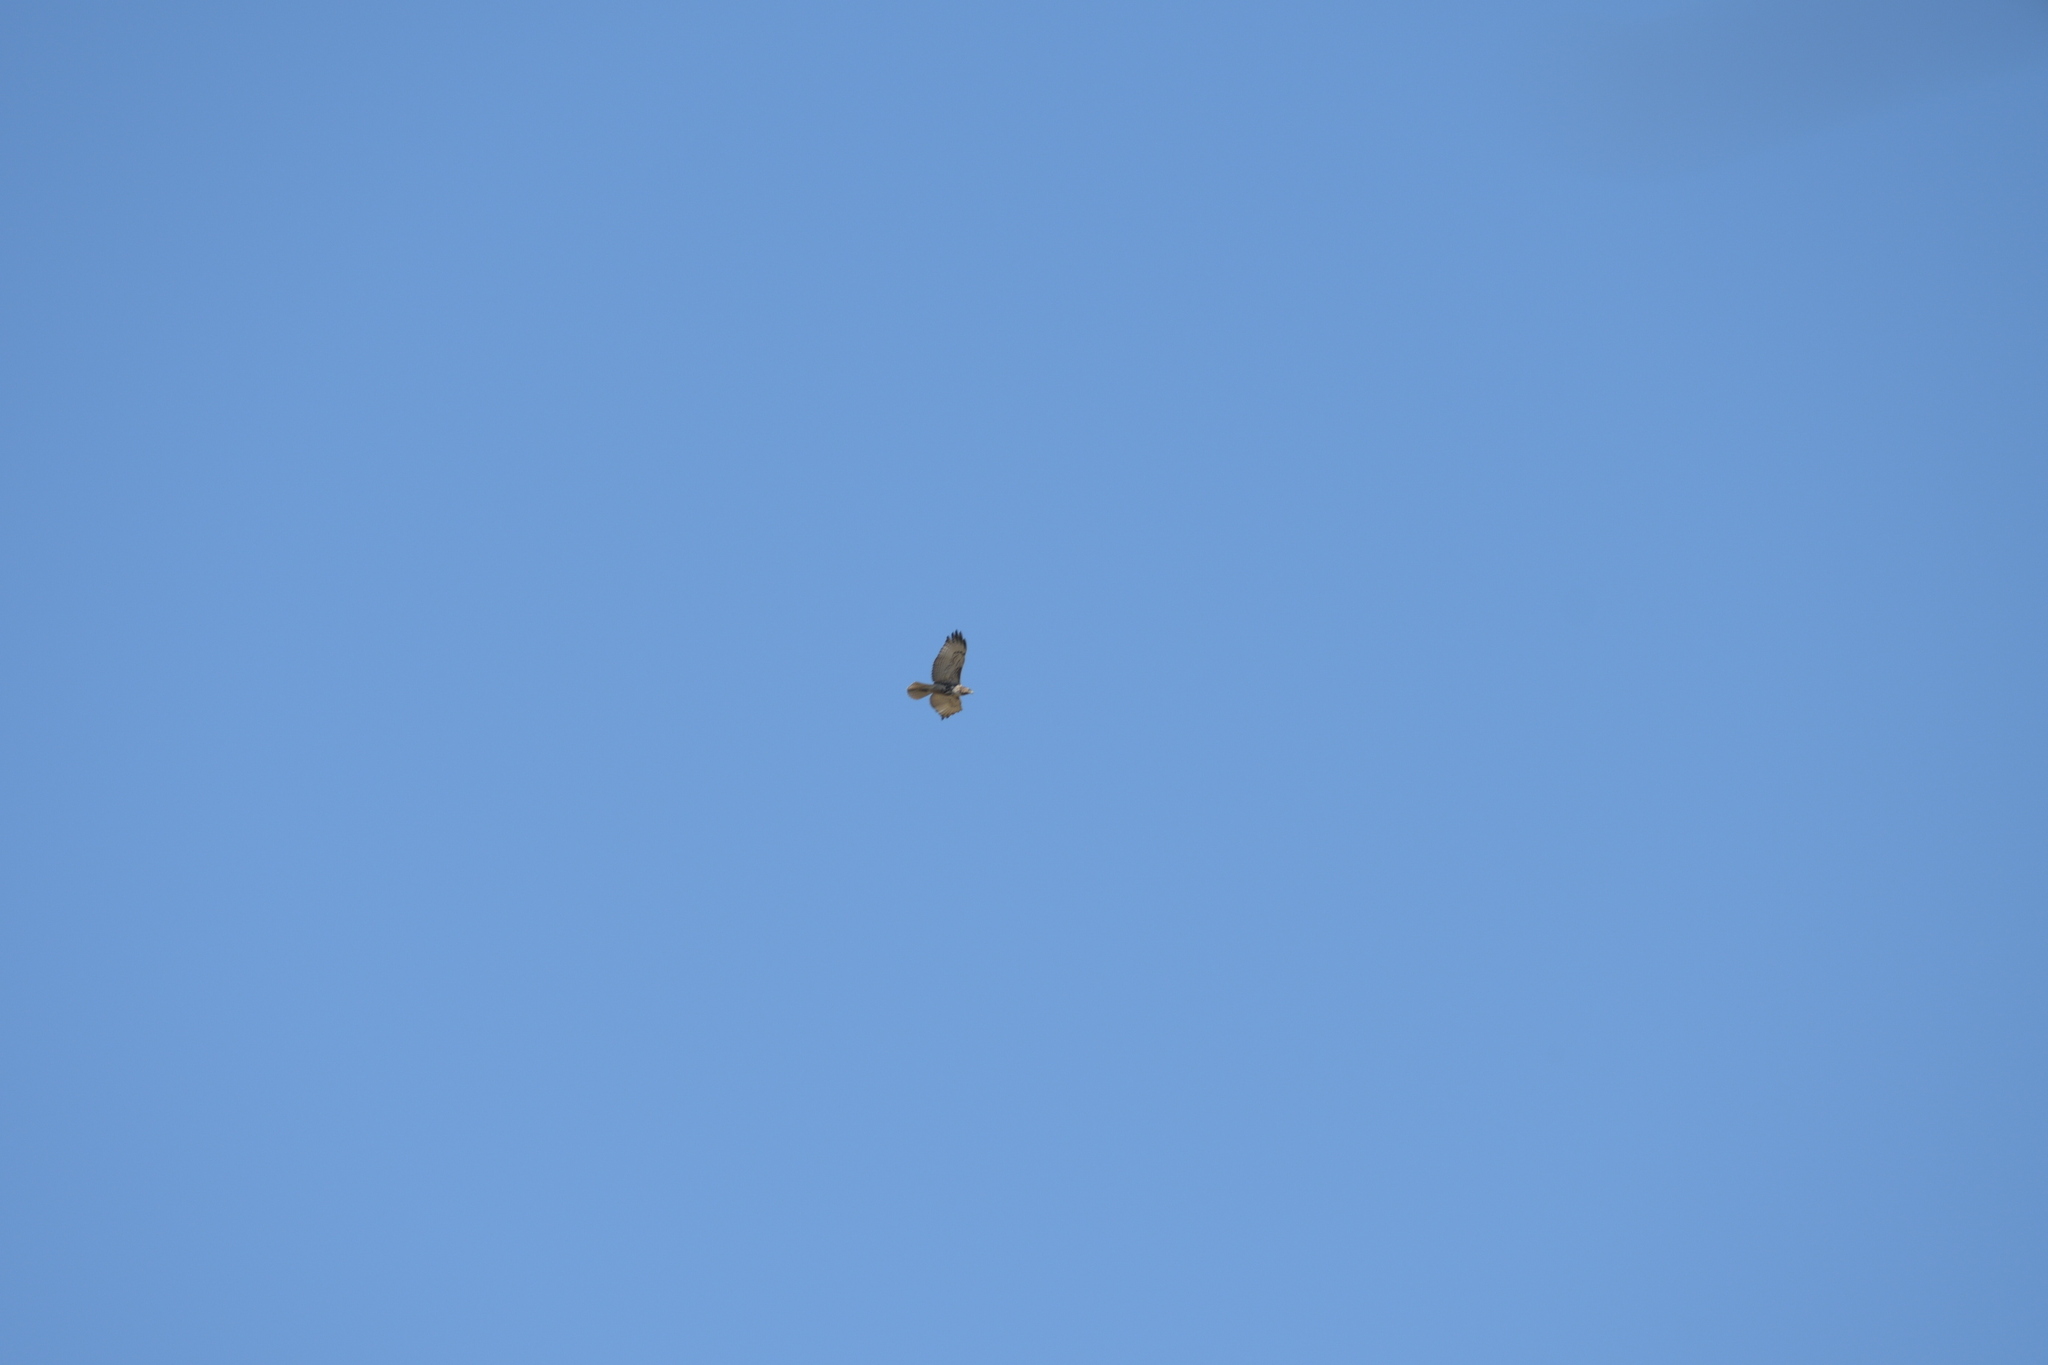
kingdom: Animalia
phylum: Chordata
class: Aves
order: Accipitriformes
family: Accipitridae
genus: Buteo
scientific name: Buteo jamaicensis
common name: Red-tailed hawk
